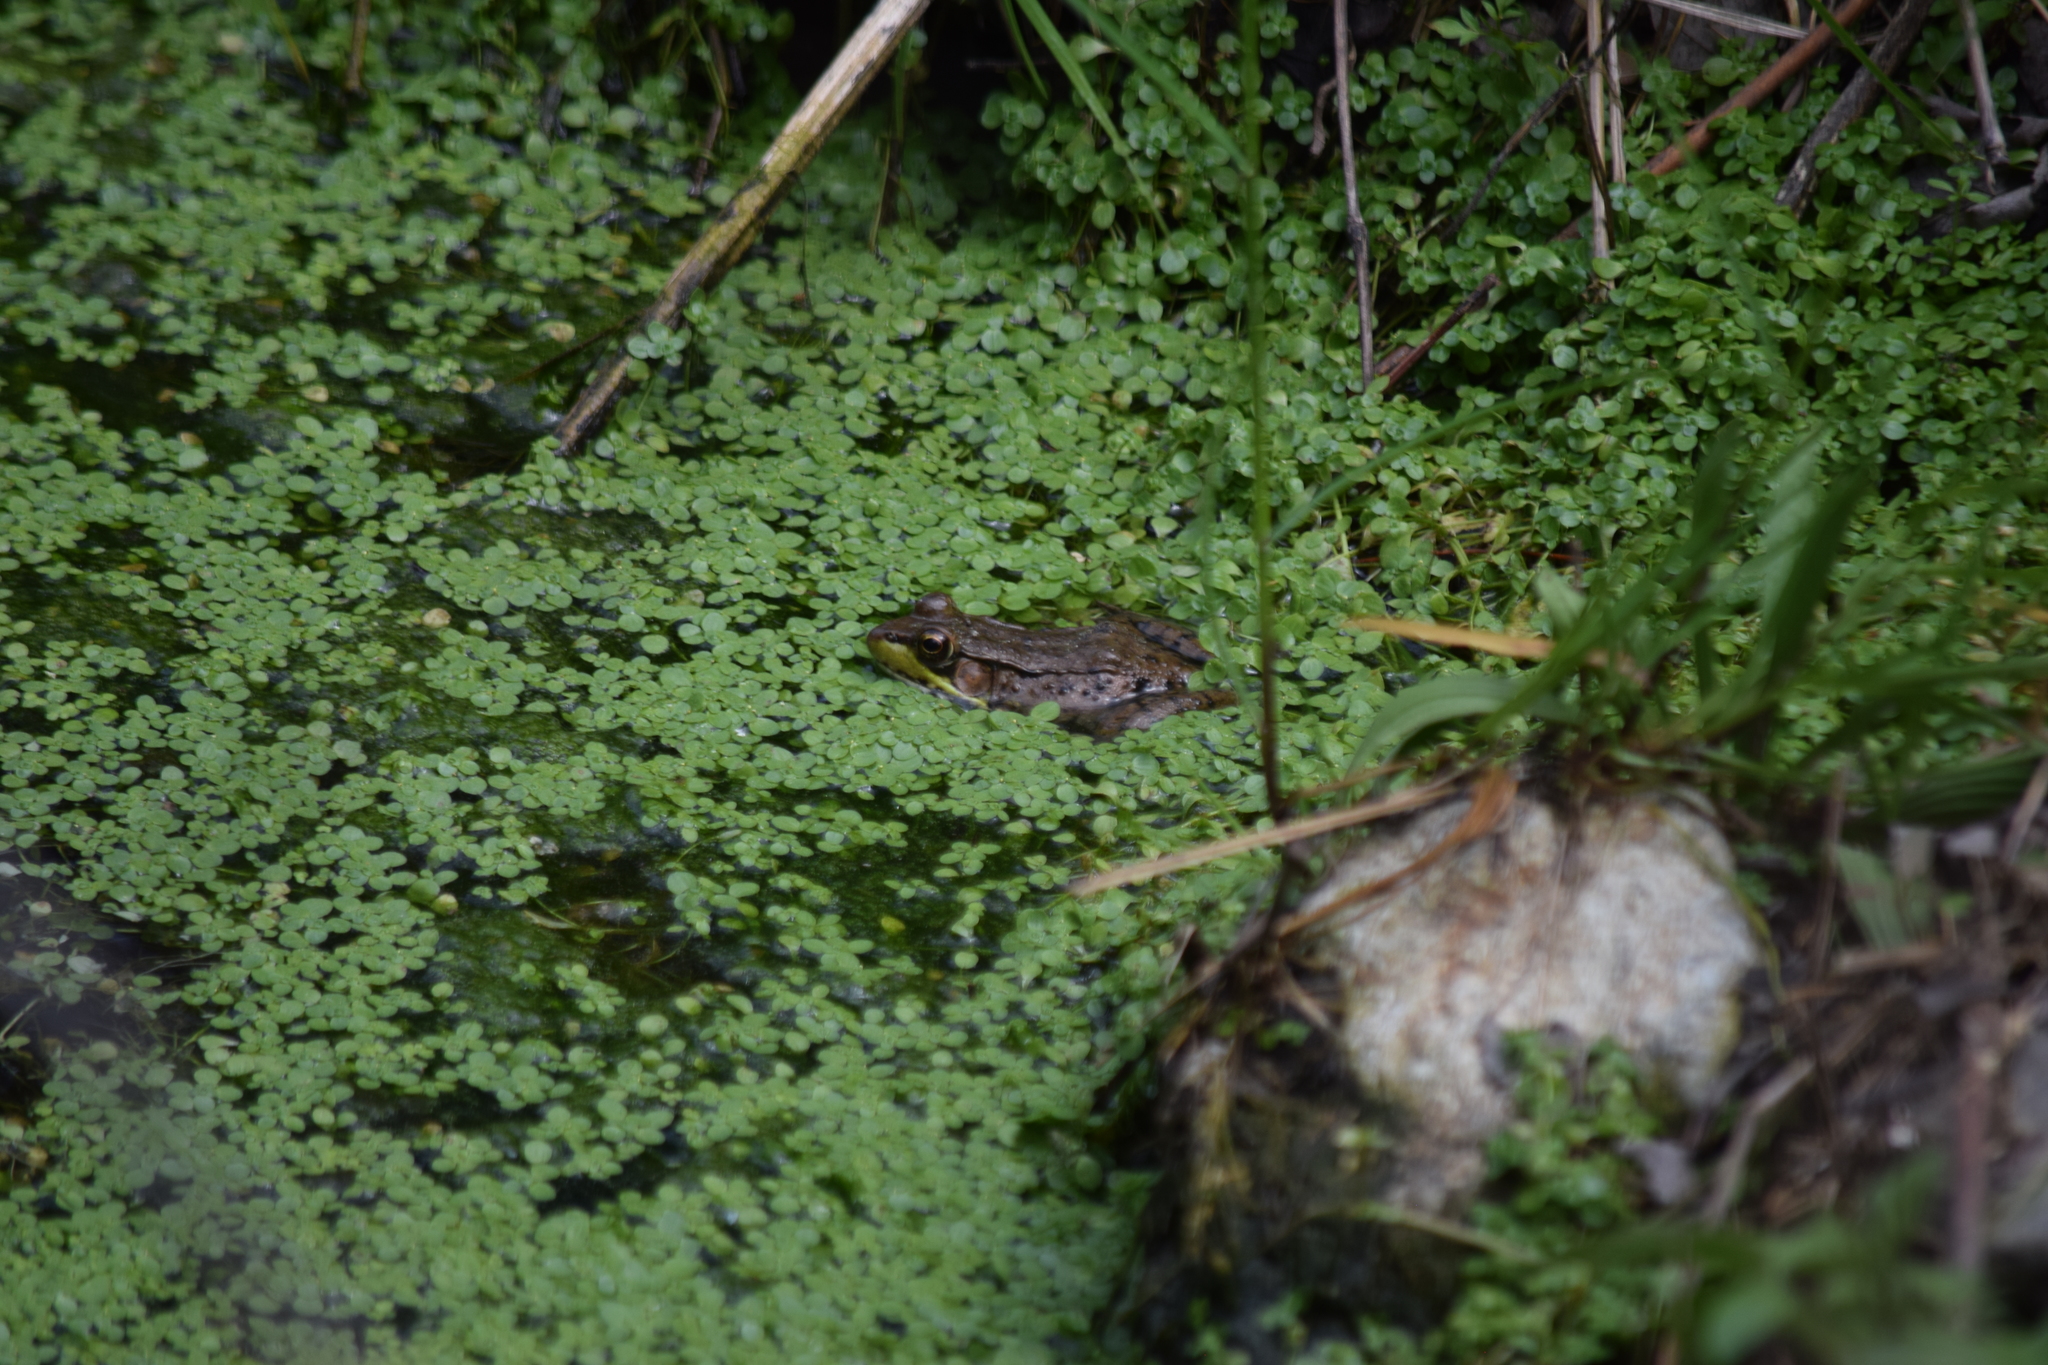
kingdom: Animalia
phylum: Chordata
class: Amphibia
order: Anura
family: Ranidae
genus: Lithobates
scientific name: Lithobates clamitans
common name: Green frog
